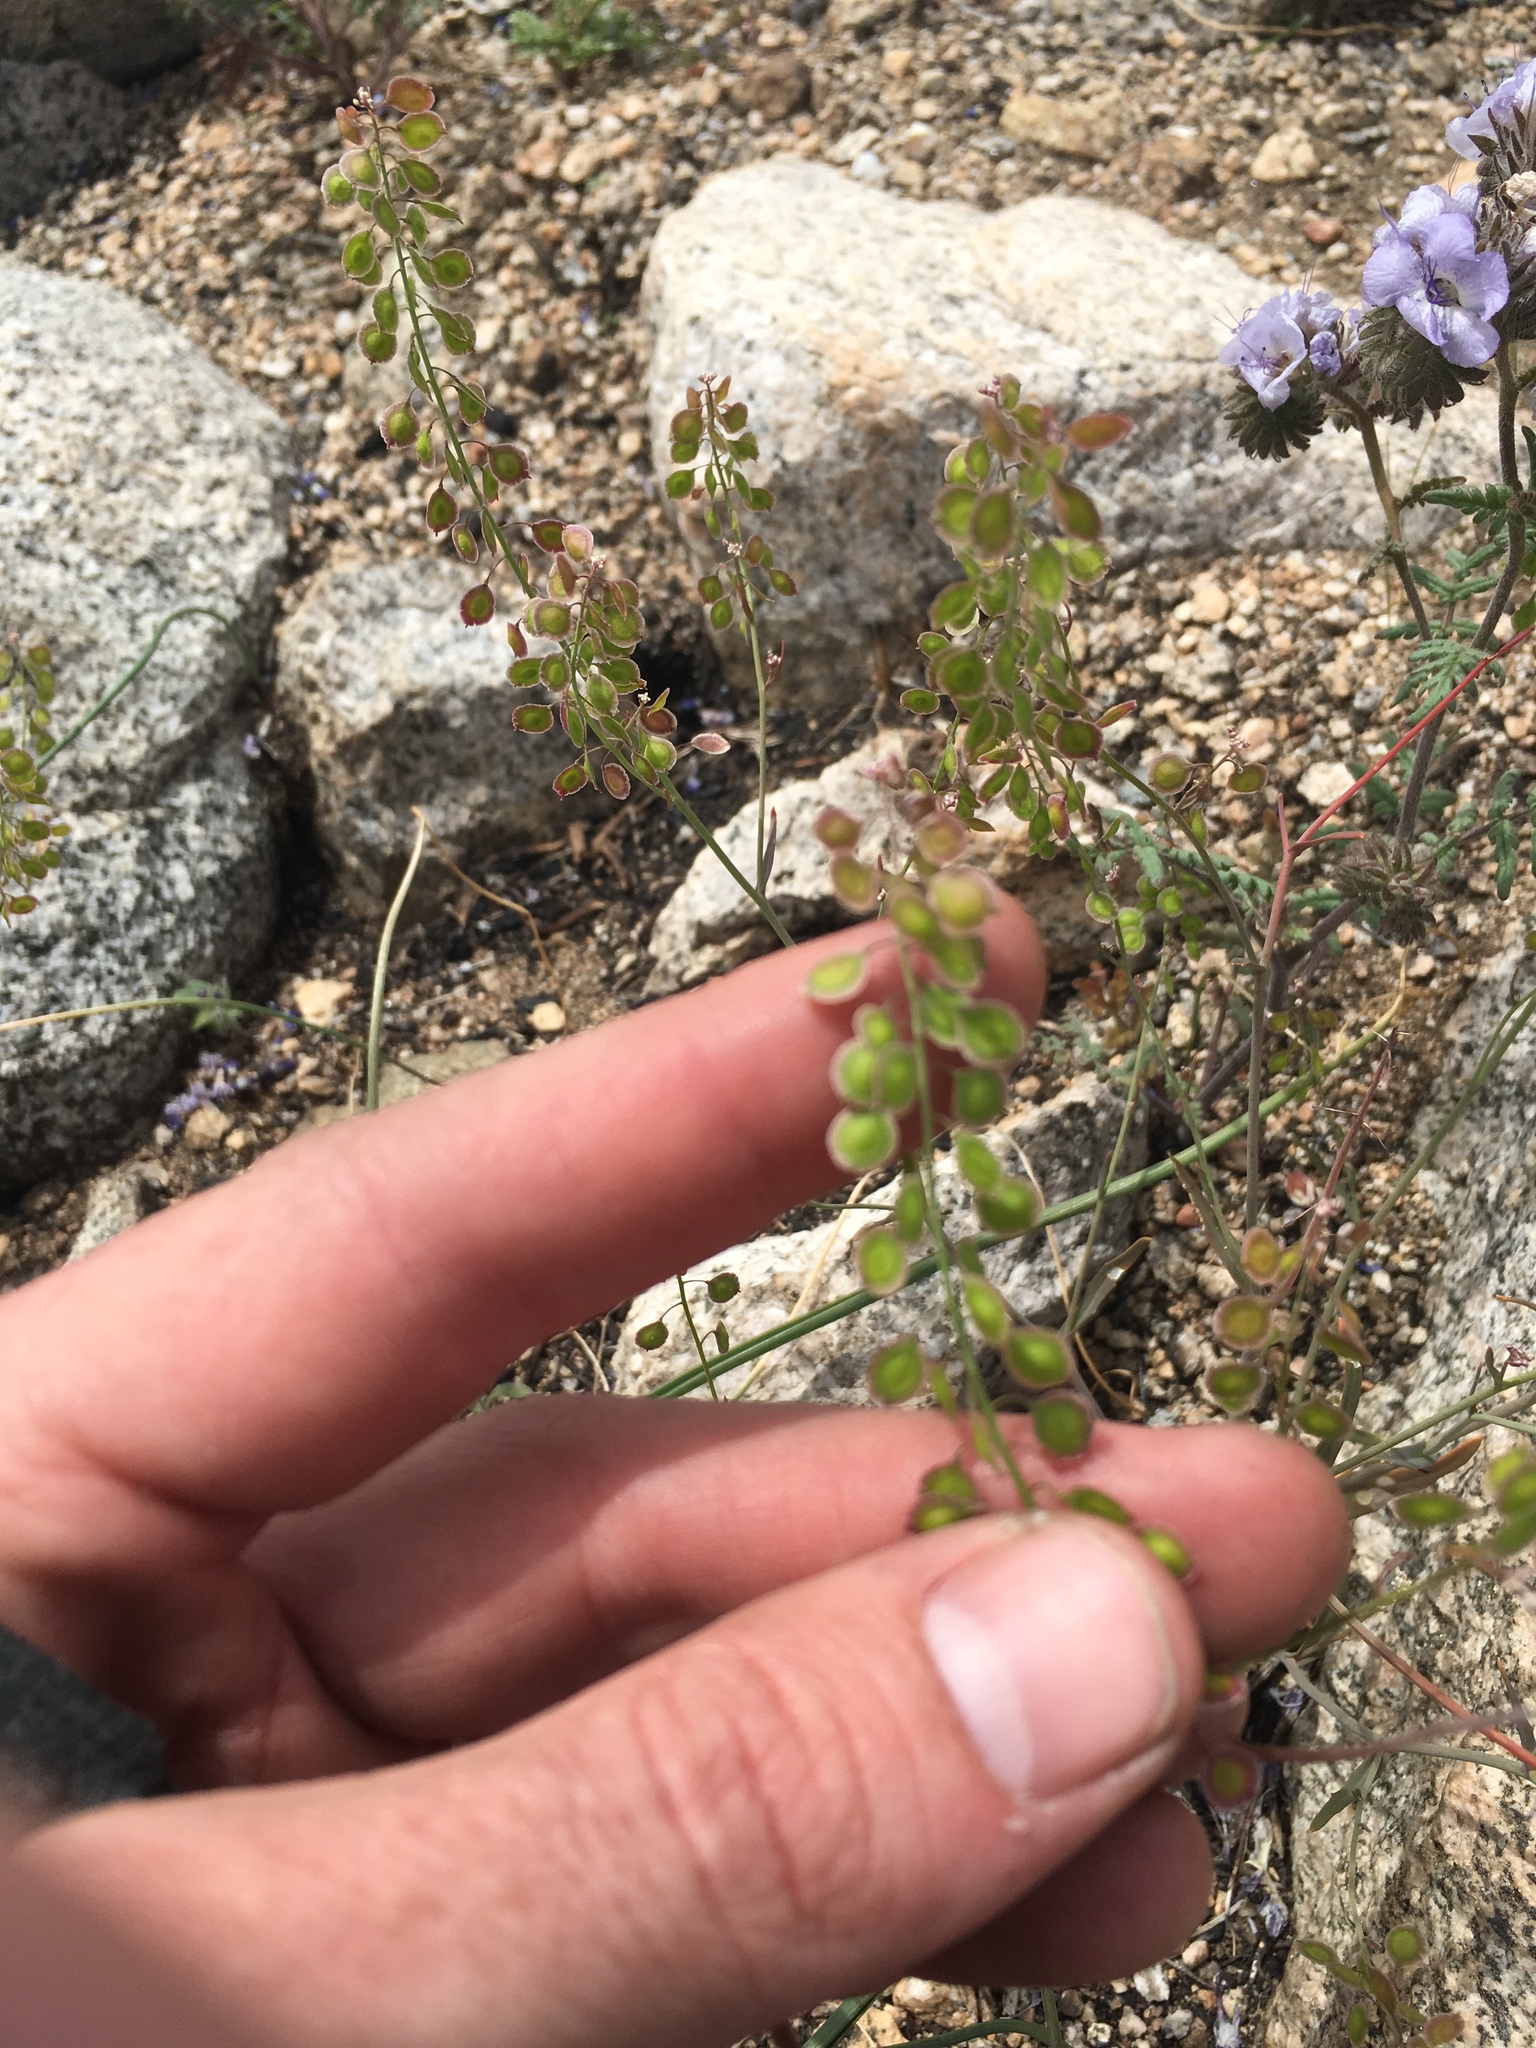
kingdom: Plantae
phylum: Tracheophyta
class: Magnoliopsida
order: Brassicales
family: Brassicaceae
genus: Thysanocarpus
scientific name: Thysanocarpus curvipes
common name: Sand fringepod
